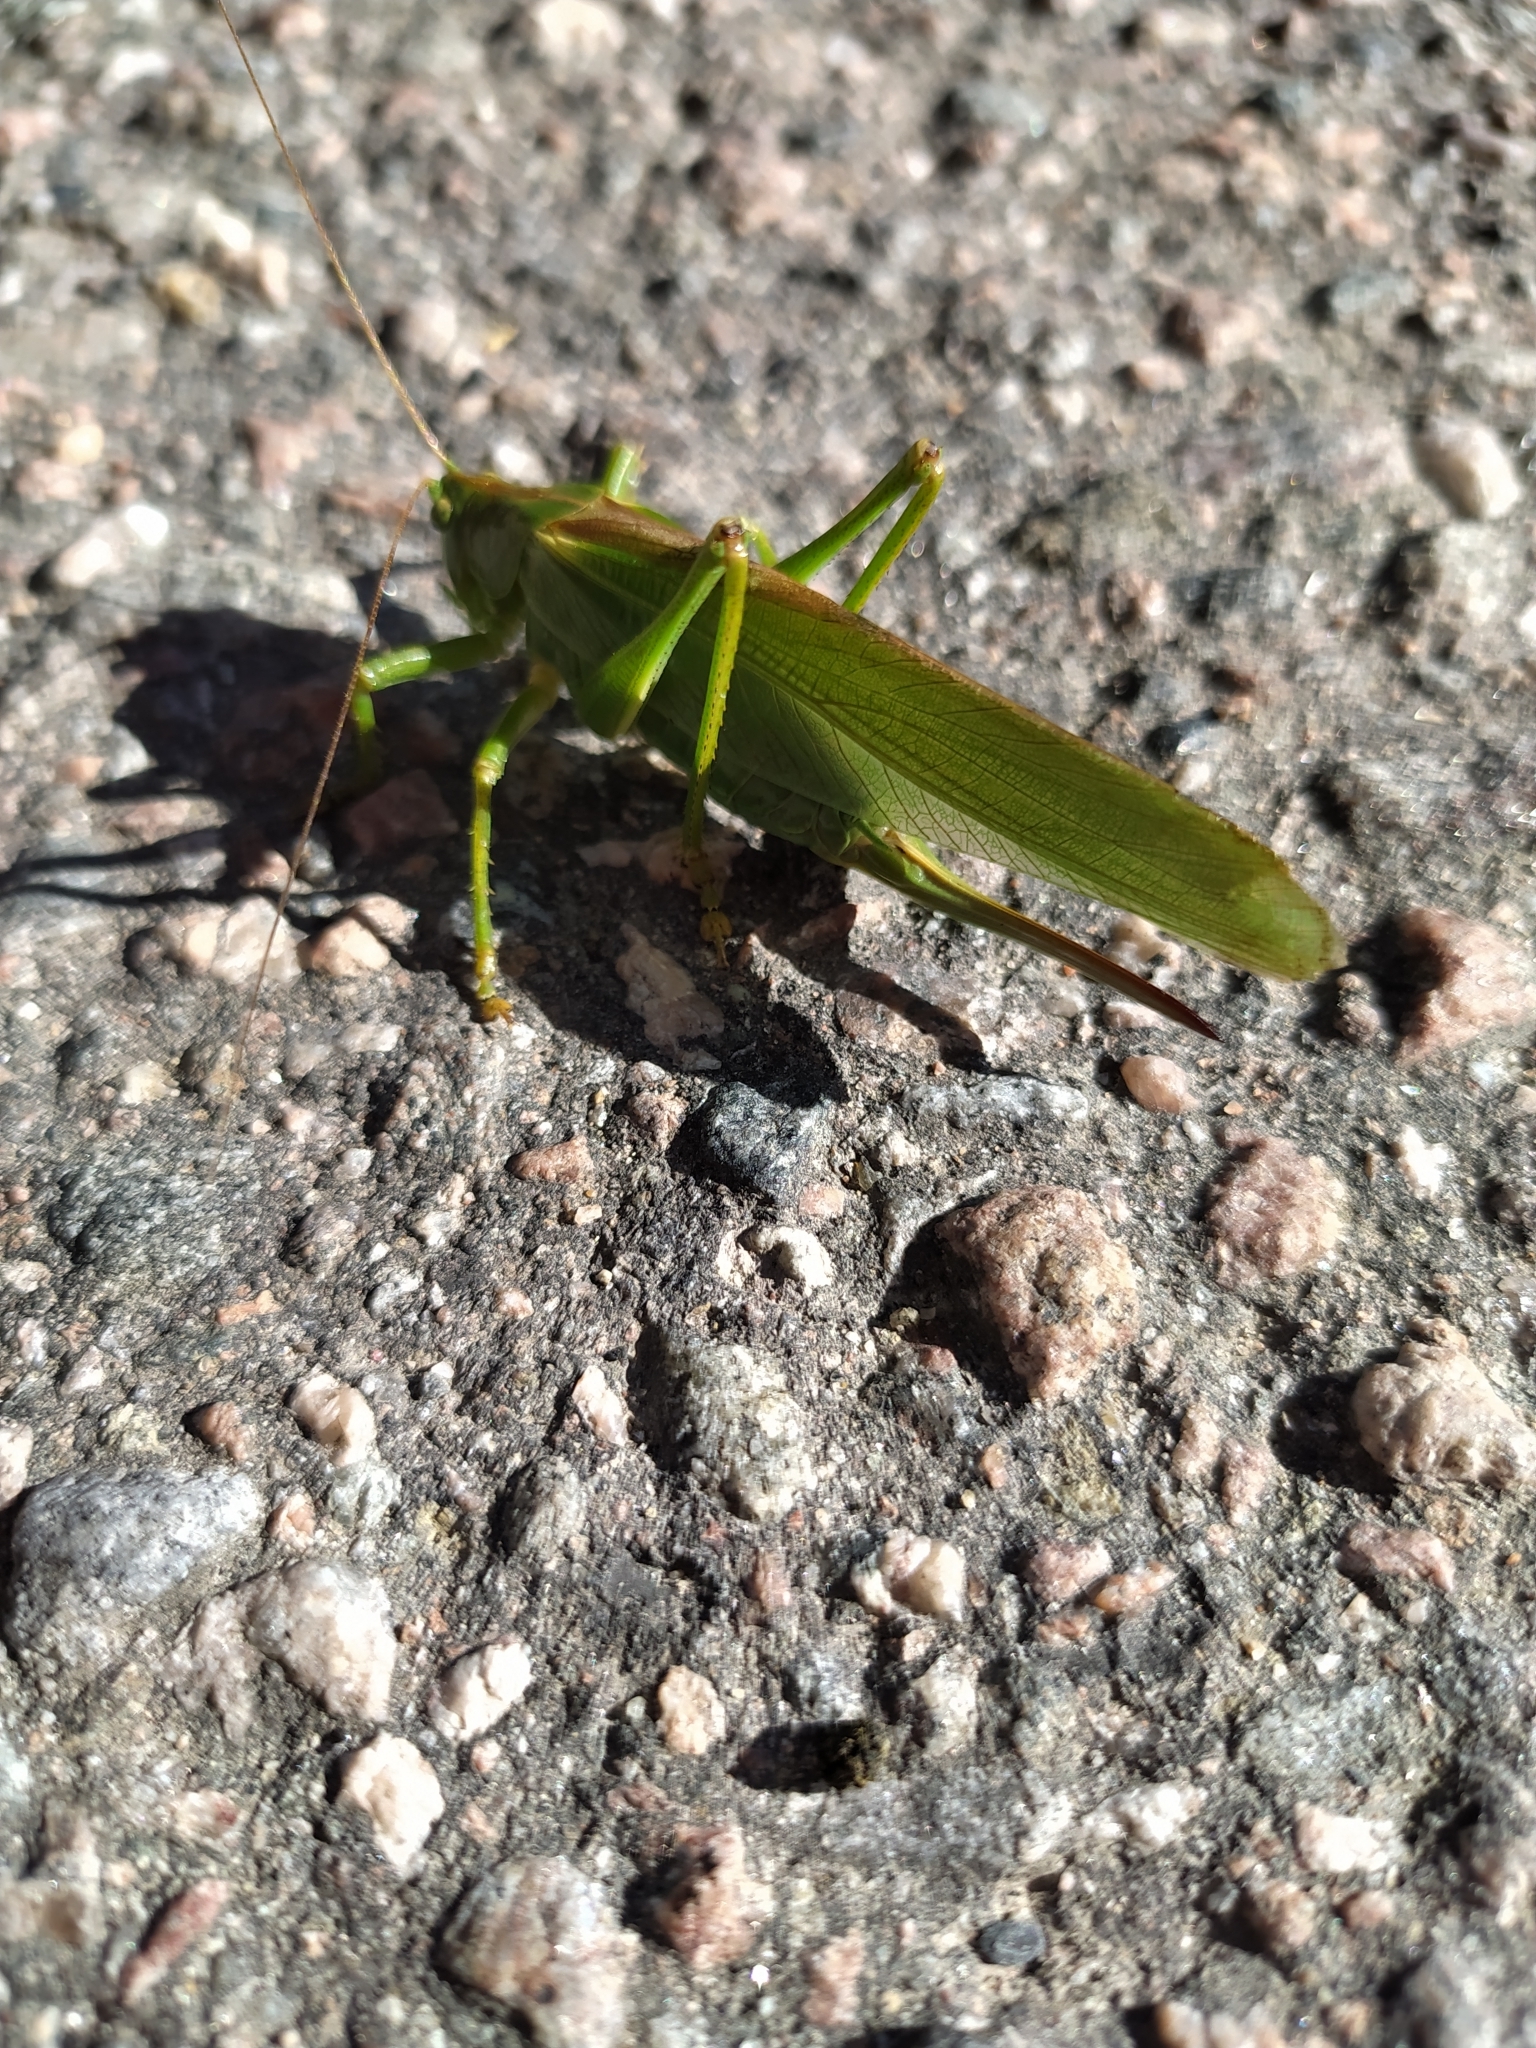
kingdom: Animalia
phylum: Arthropoda
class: Insecta
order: Orthoptera
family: Tettigoniidae
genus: Tettigonia
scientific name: Tettigonia viridissima
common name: Great green bush-cricket
